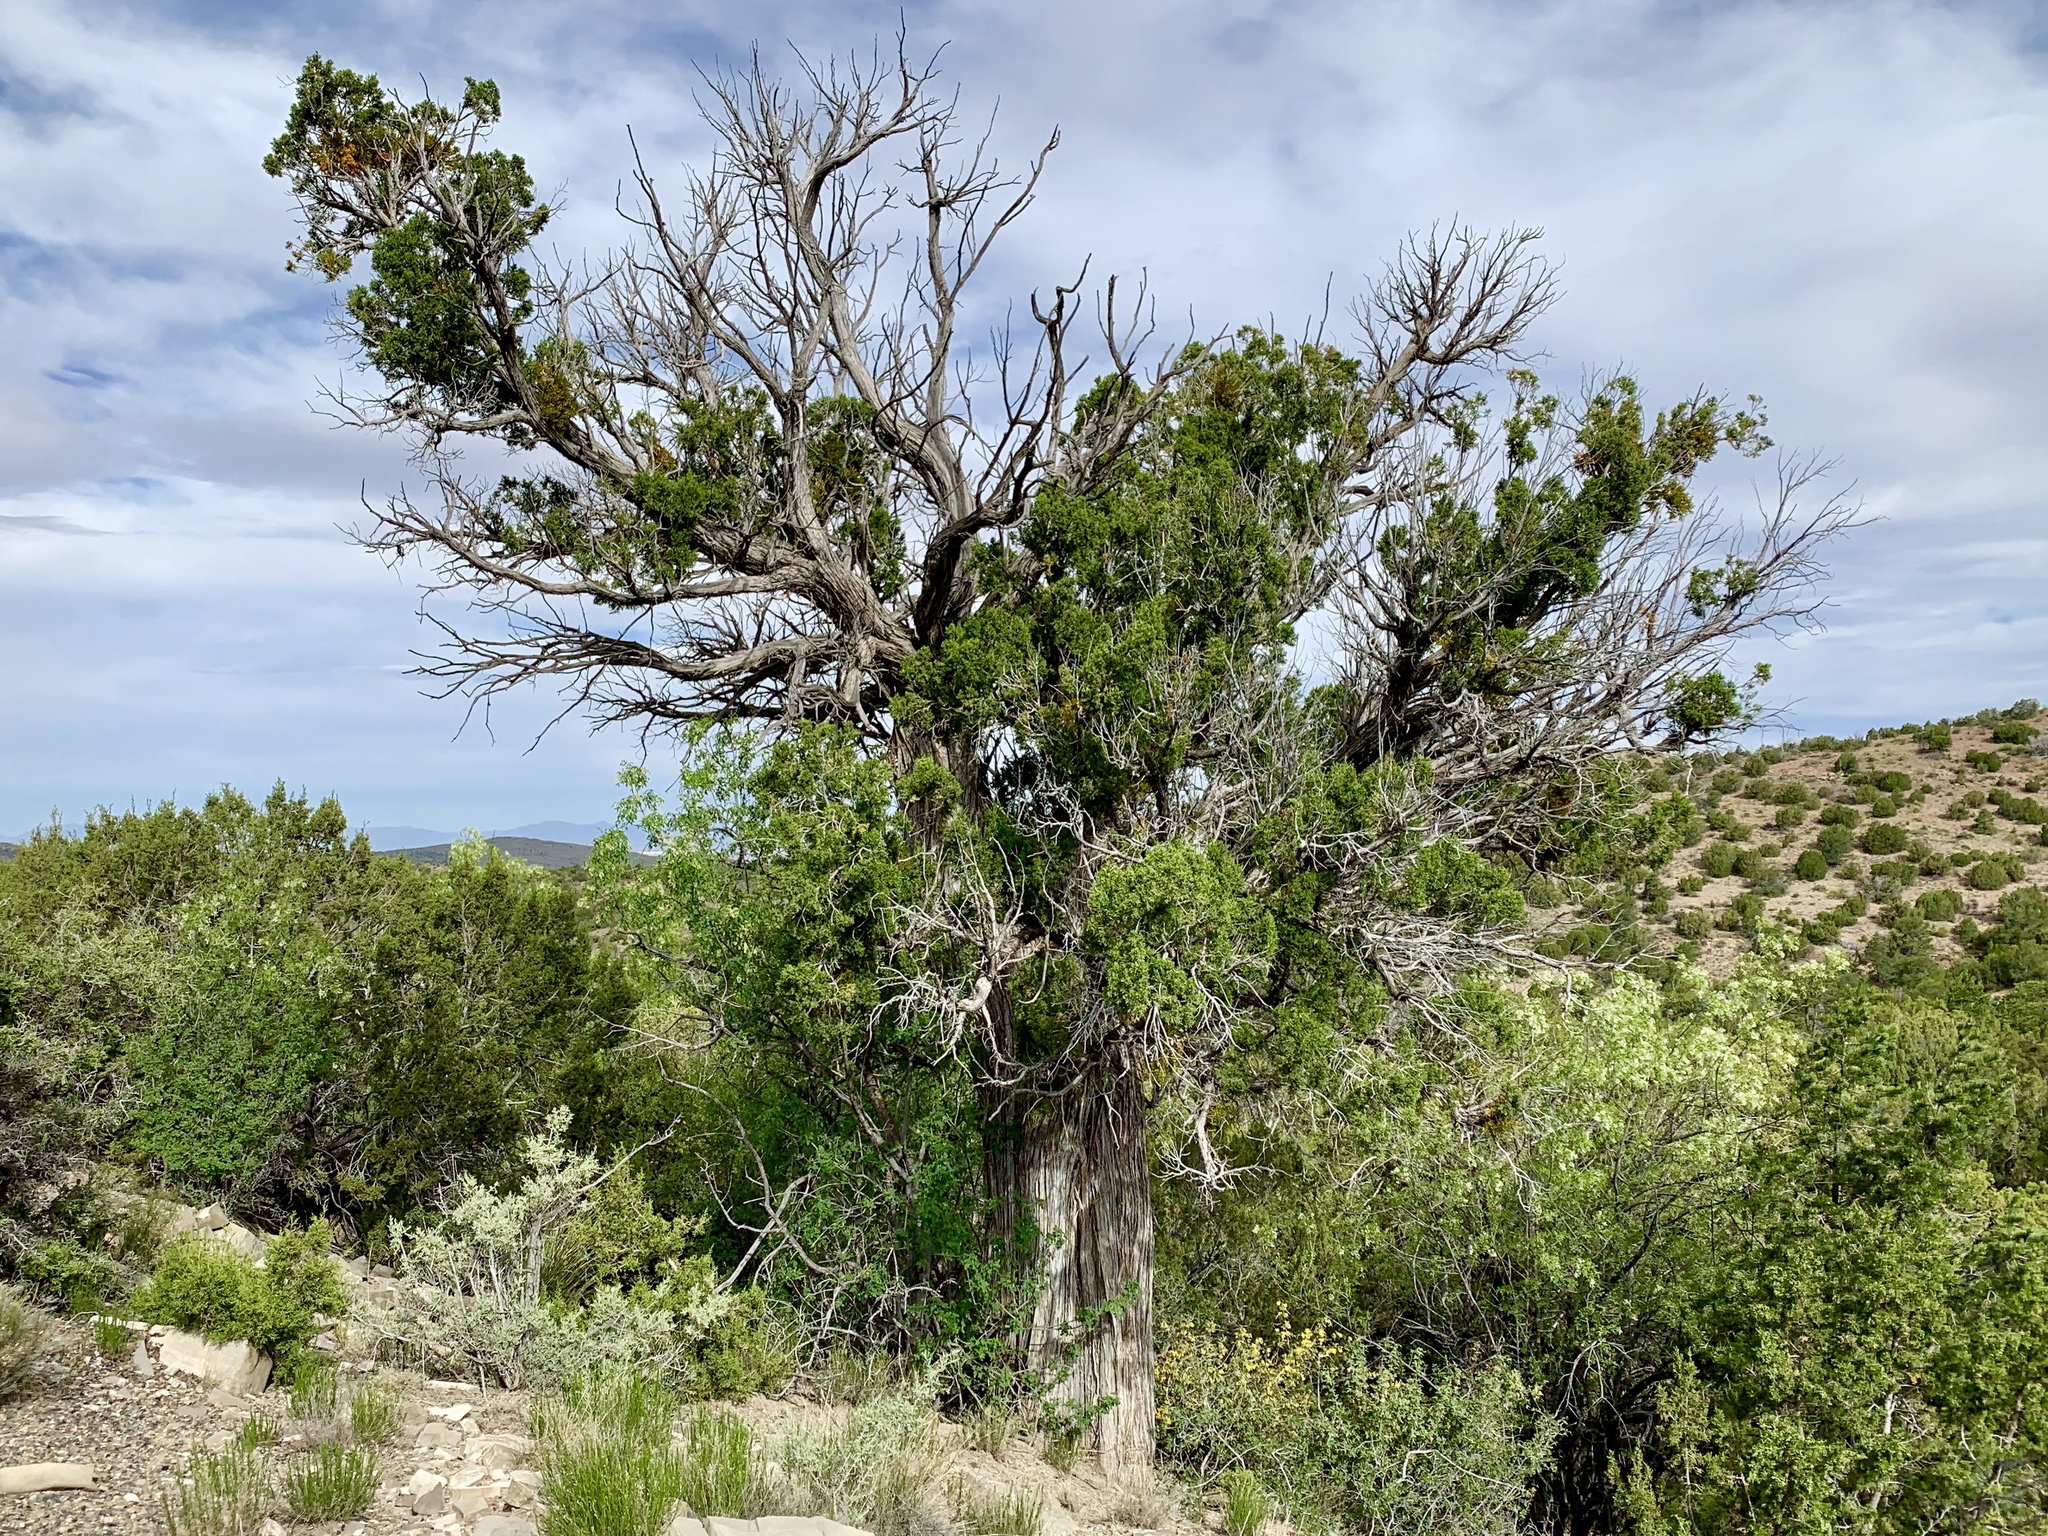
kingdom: Plantae
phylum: Tracheophyta
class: Pinopsida
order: Pinales
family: Cupressaceae
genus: Juniperus
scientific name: Juniperus monosperma
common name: One-seed juniper
